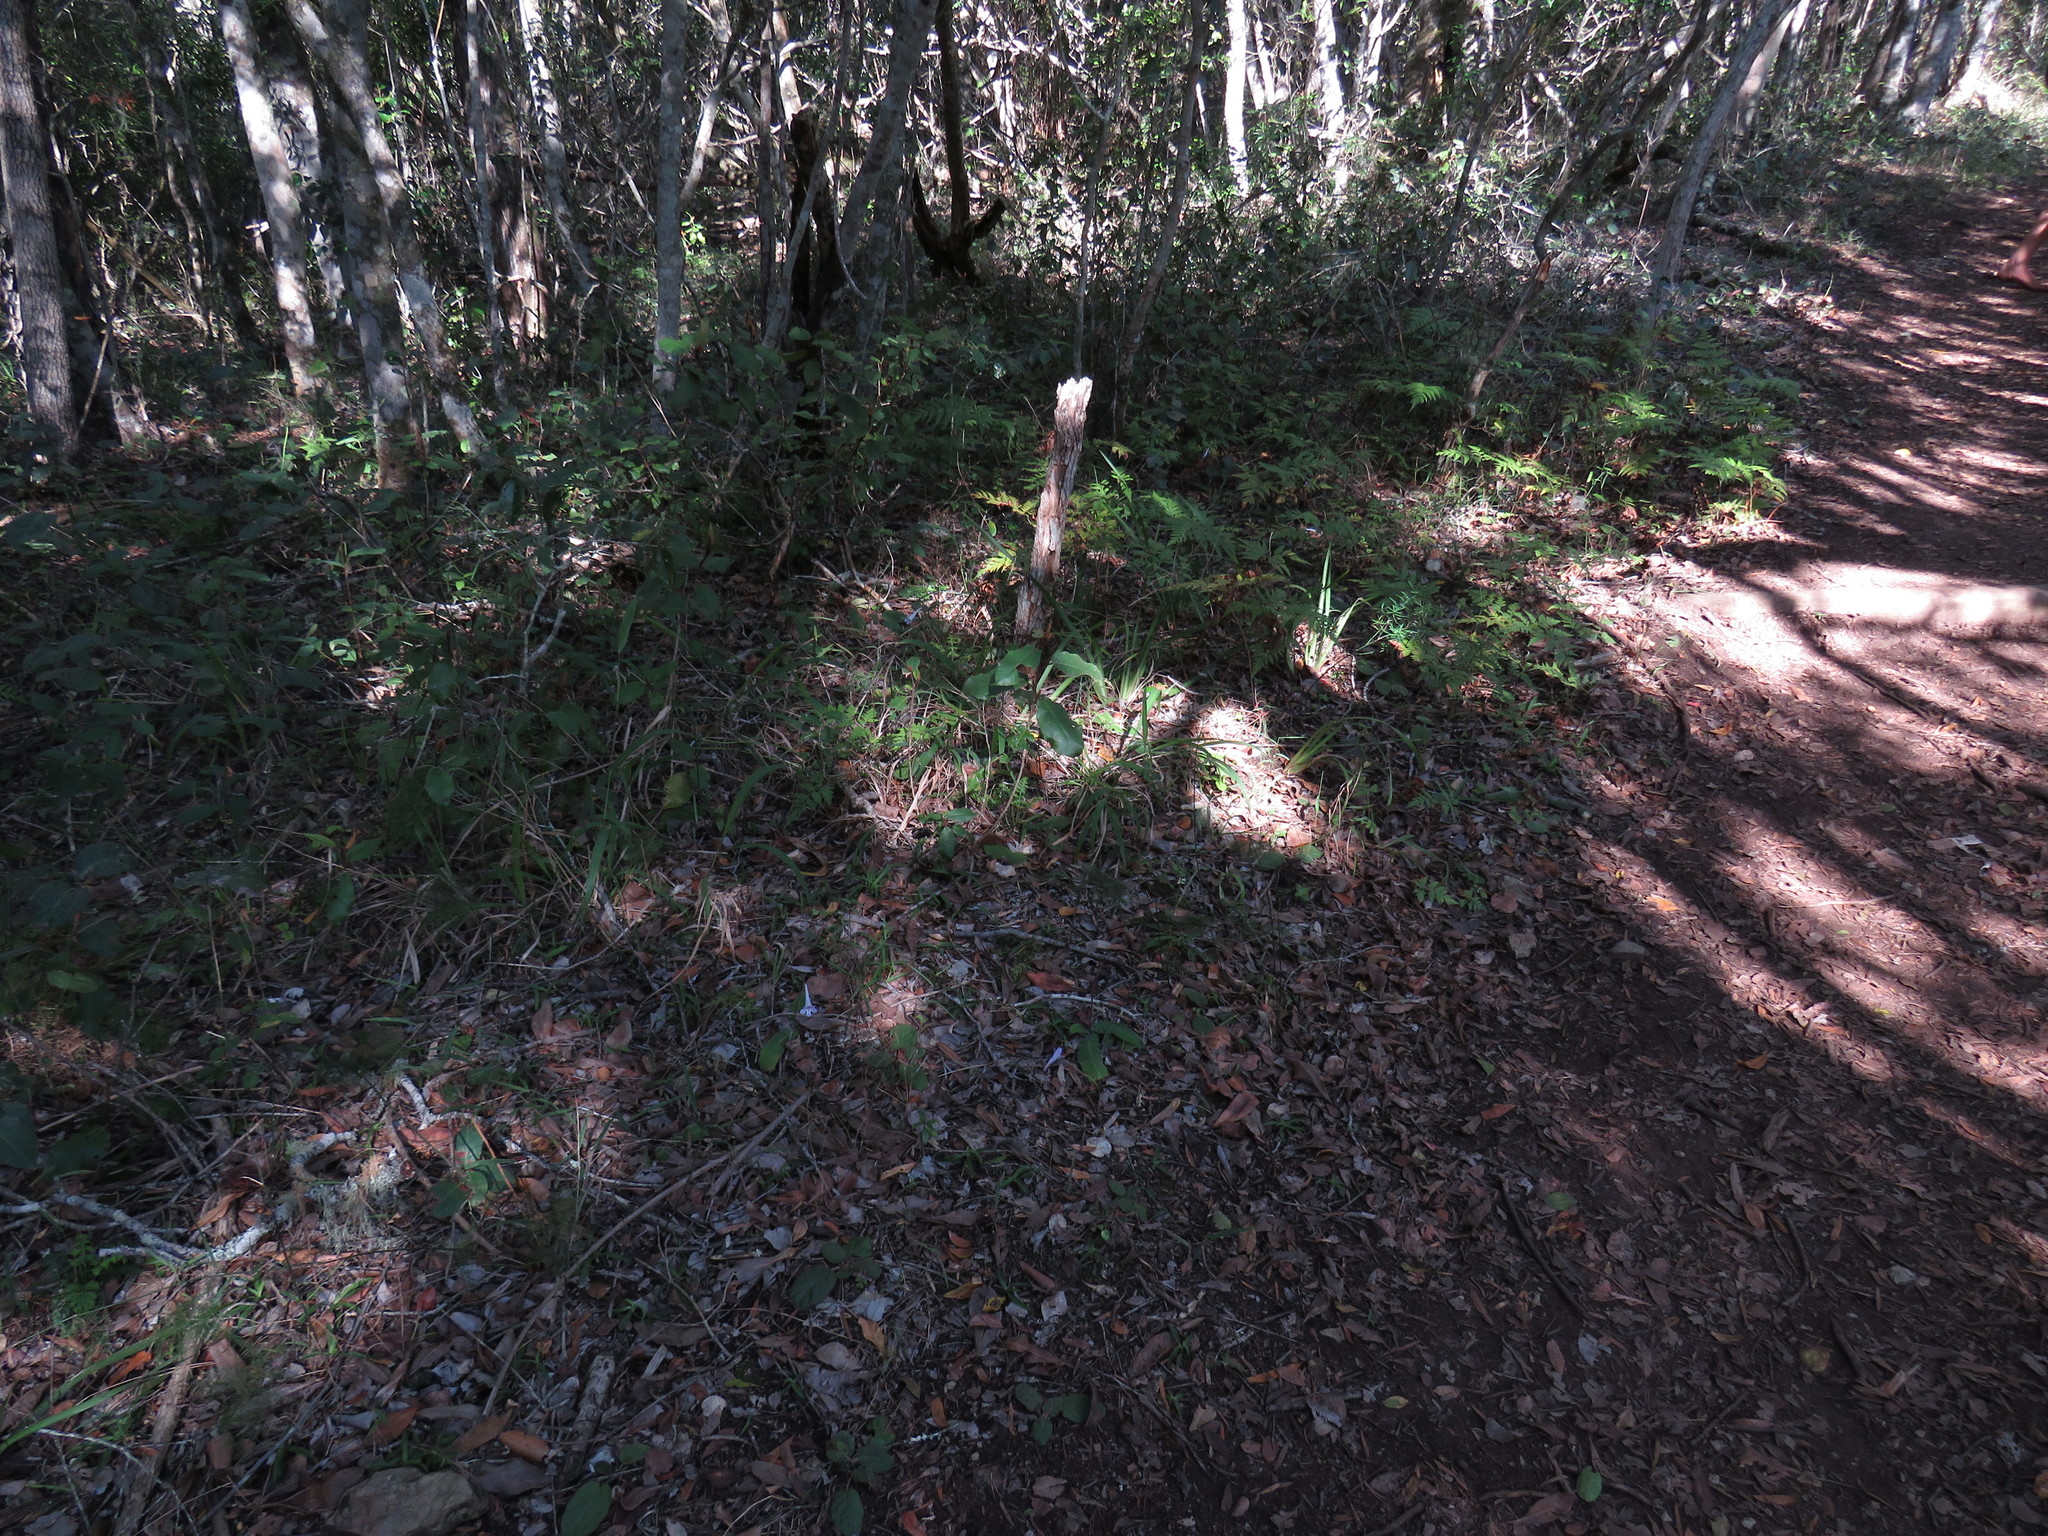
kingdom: Plantae
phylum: Tracheophyta
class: Magnoliopsida
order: Lamiales
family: Gesneriaceae
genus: Streptocarpus
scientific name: Streptocarpus rexii
